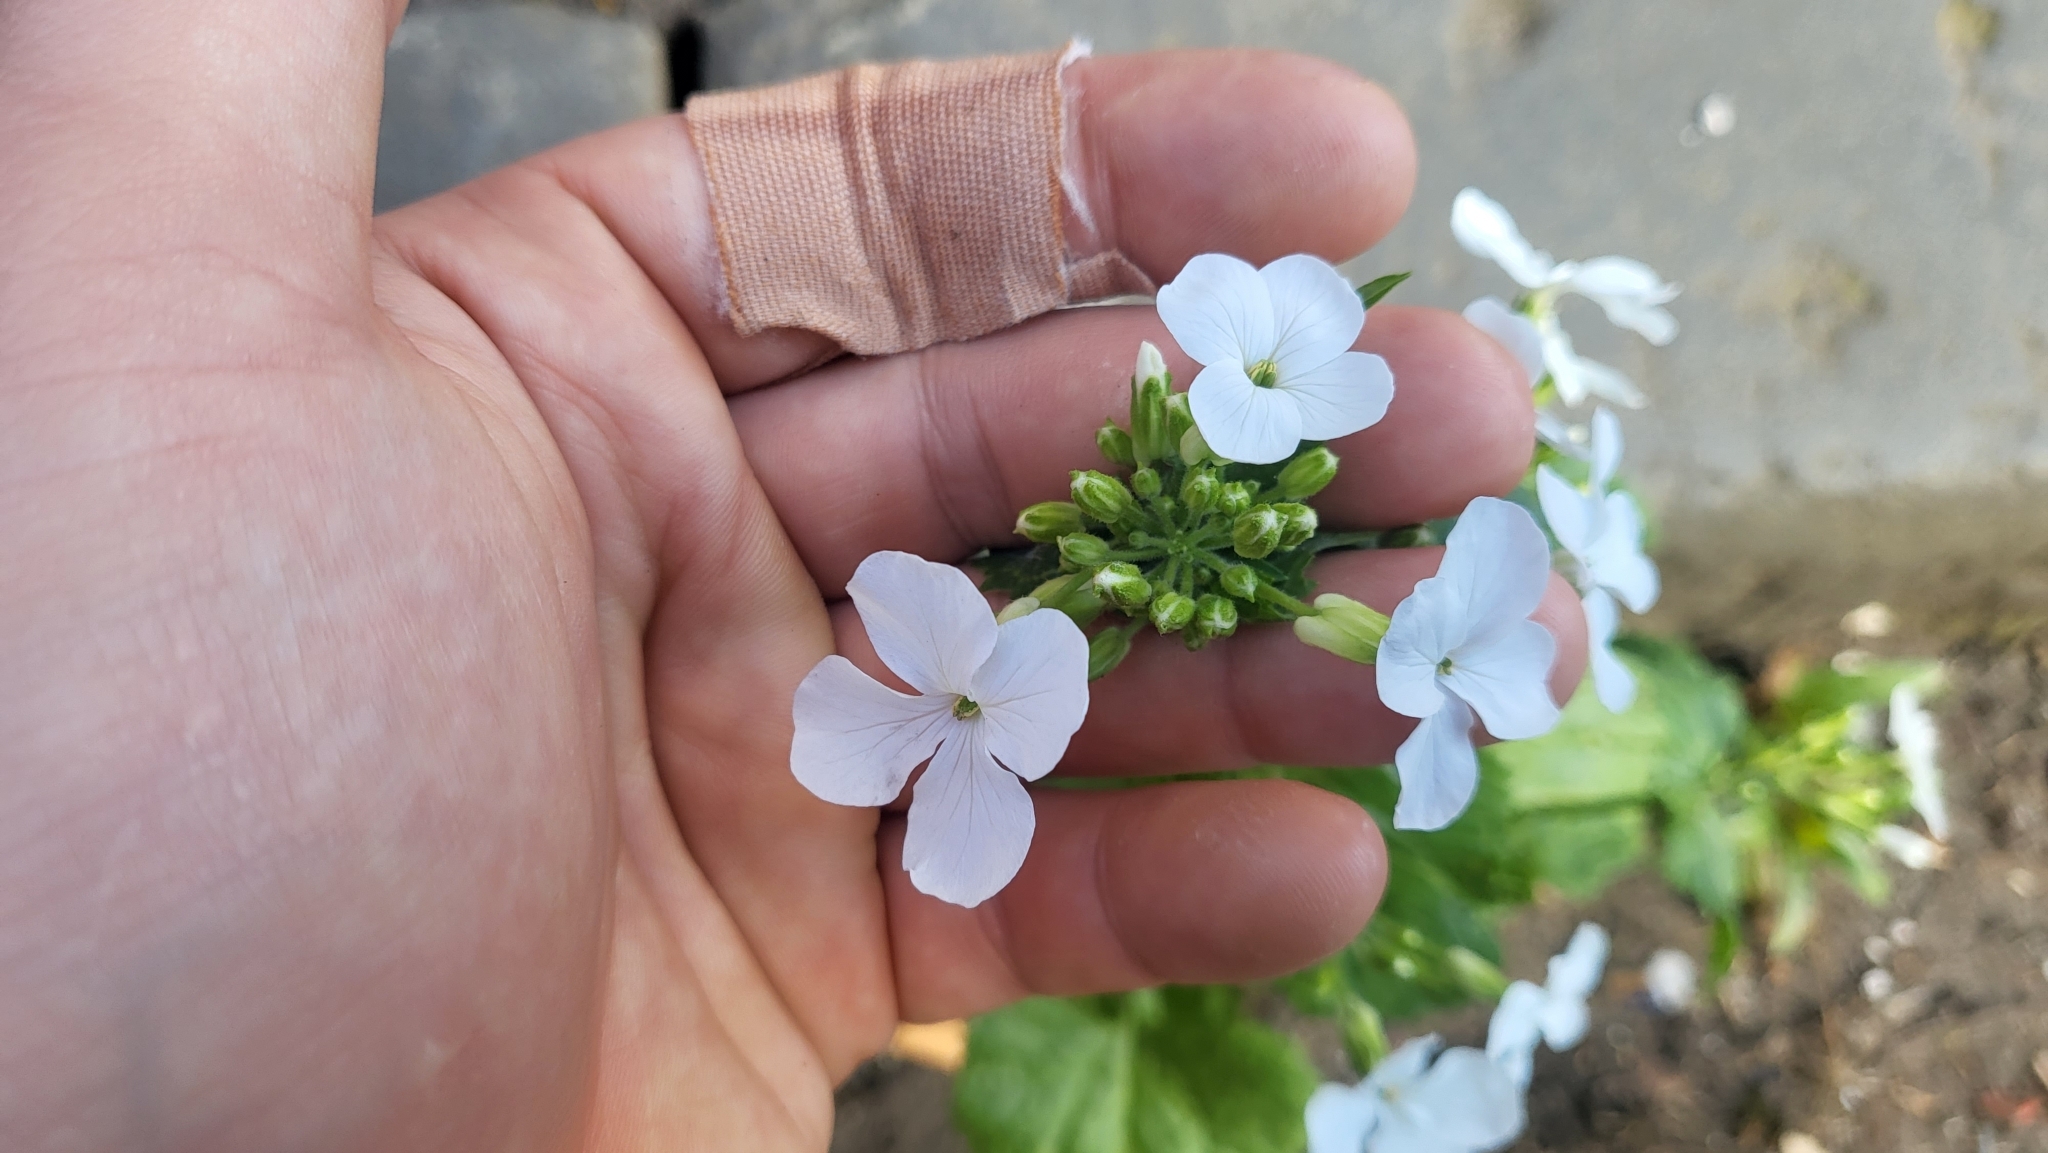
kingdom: Plantae
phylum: Tracheophyta
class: Magnoliopsida
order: Brassicales
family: Brassicaceae
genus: Lunaria
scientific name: Lunaria annua
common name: Honesty
